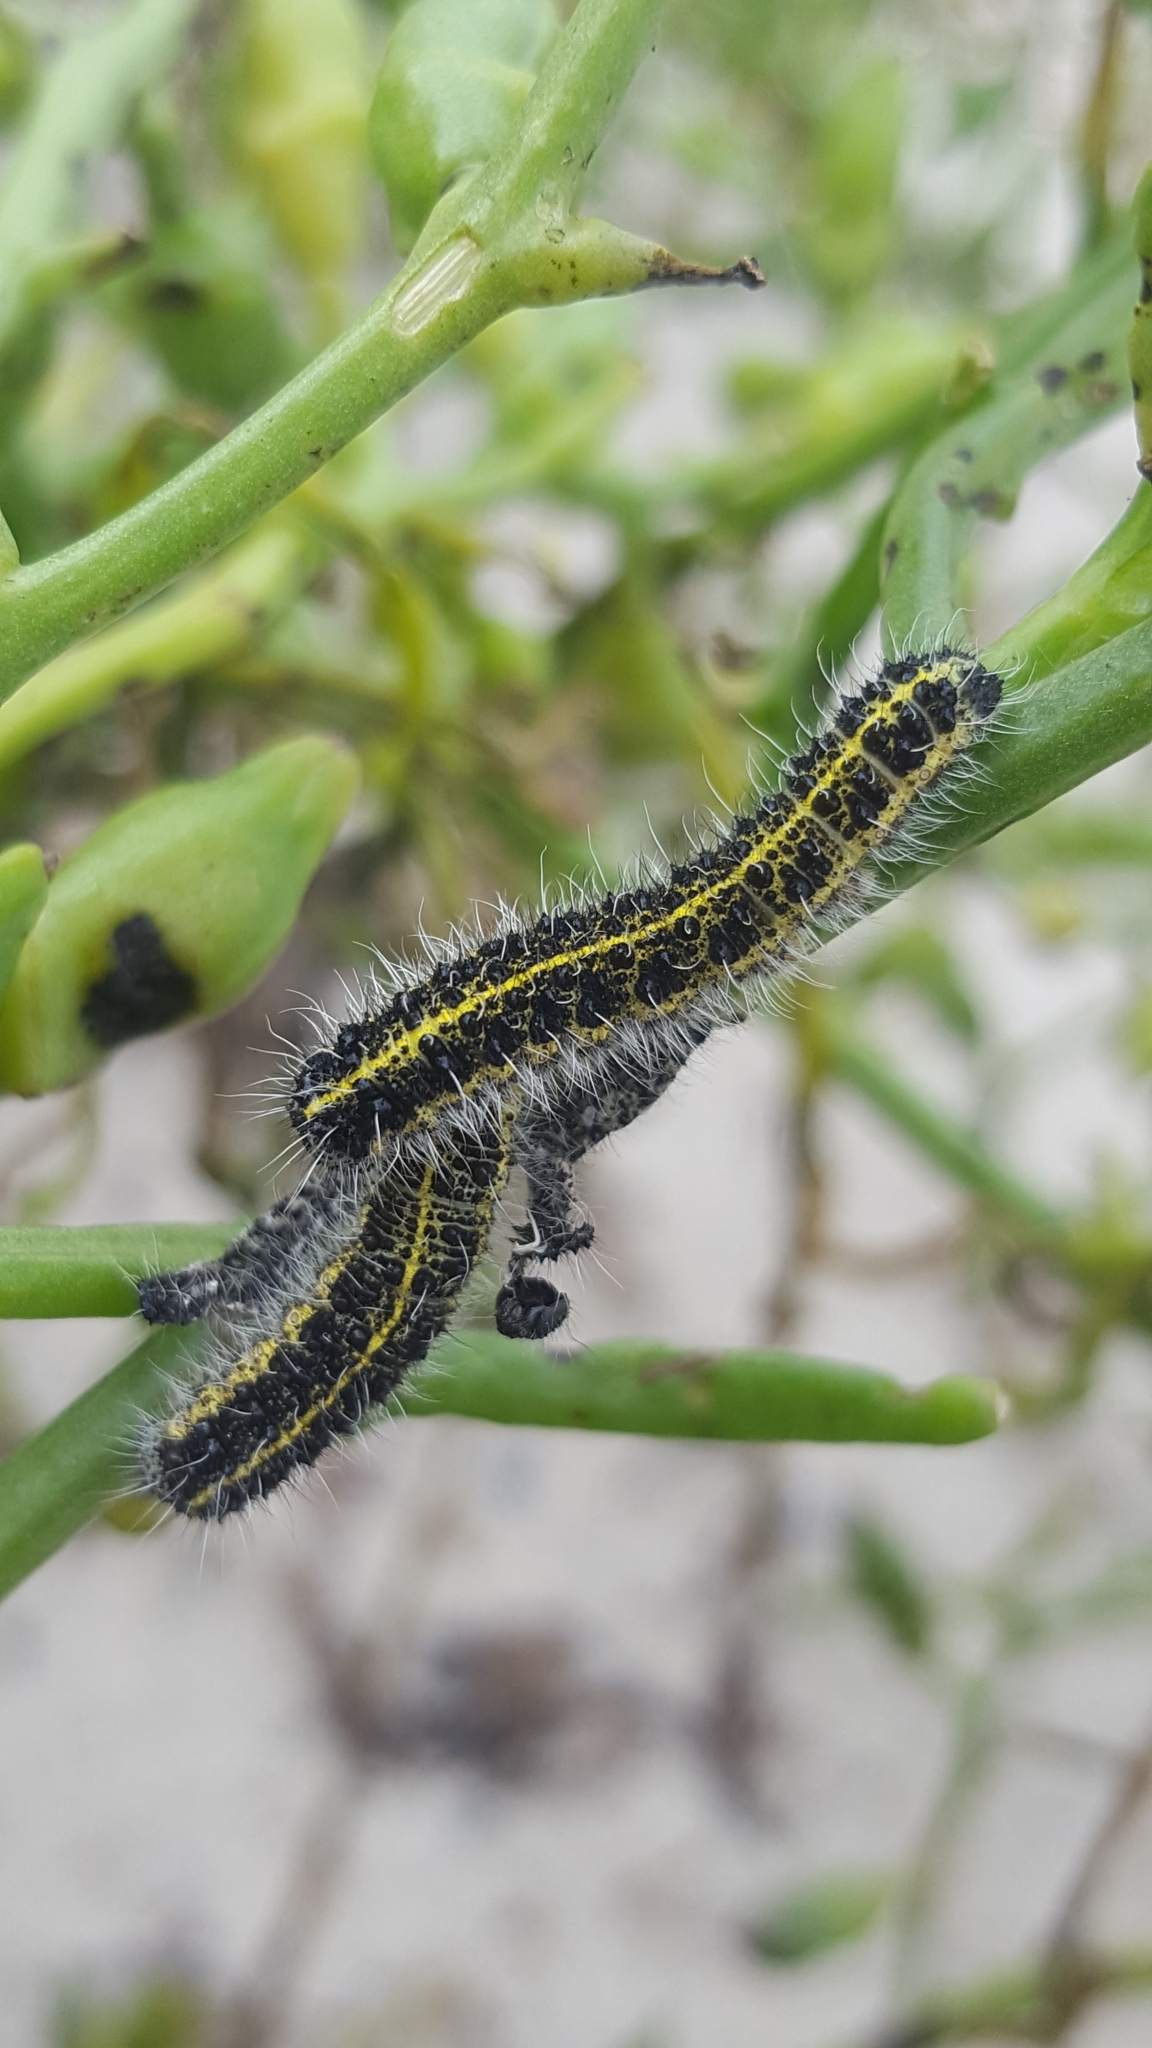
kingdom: Animalia
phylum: Arthropoda
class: Insecta
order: Lepidoptera
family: Pieridae
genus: Pieris
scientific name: Pieris brassicae
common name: Large white
